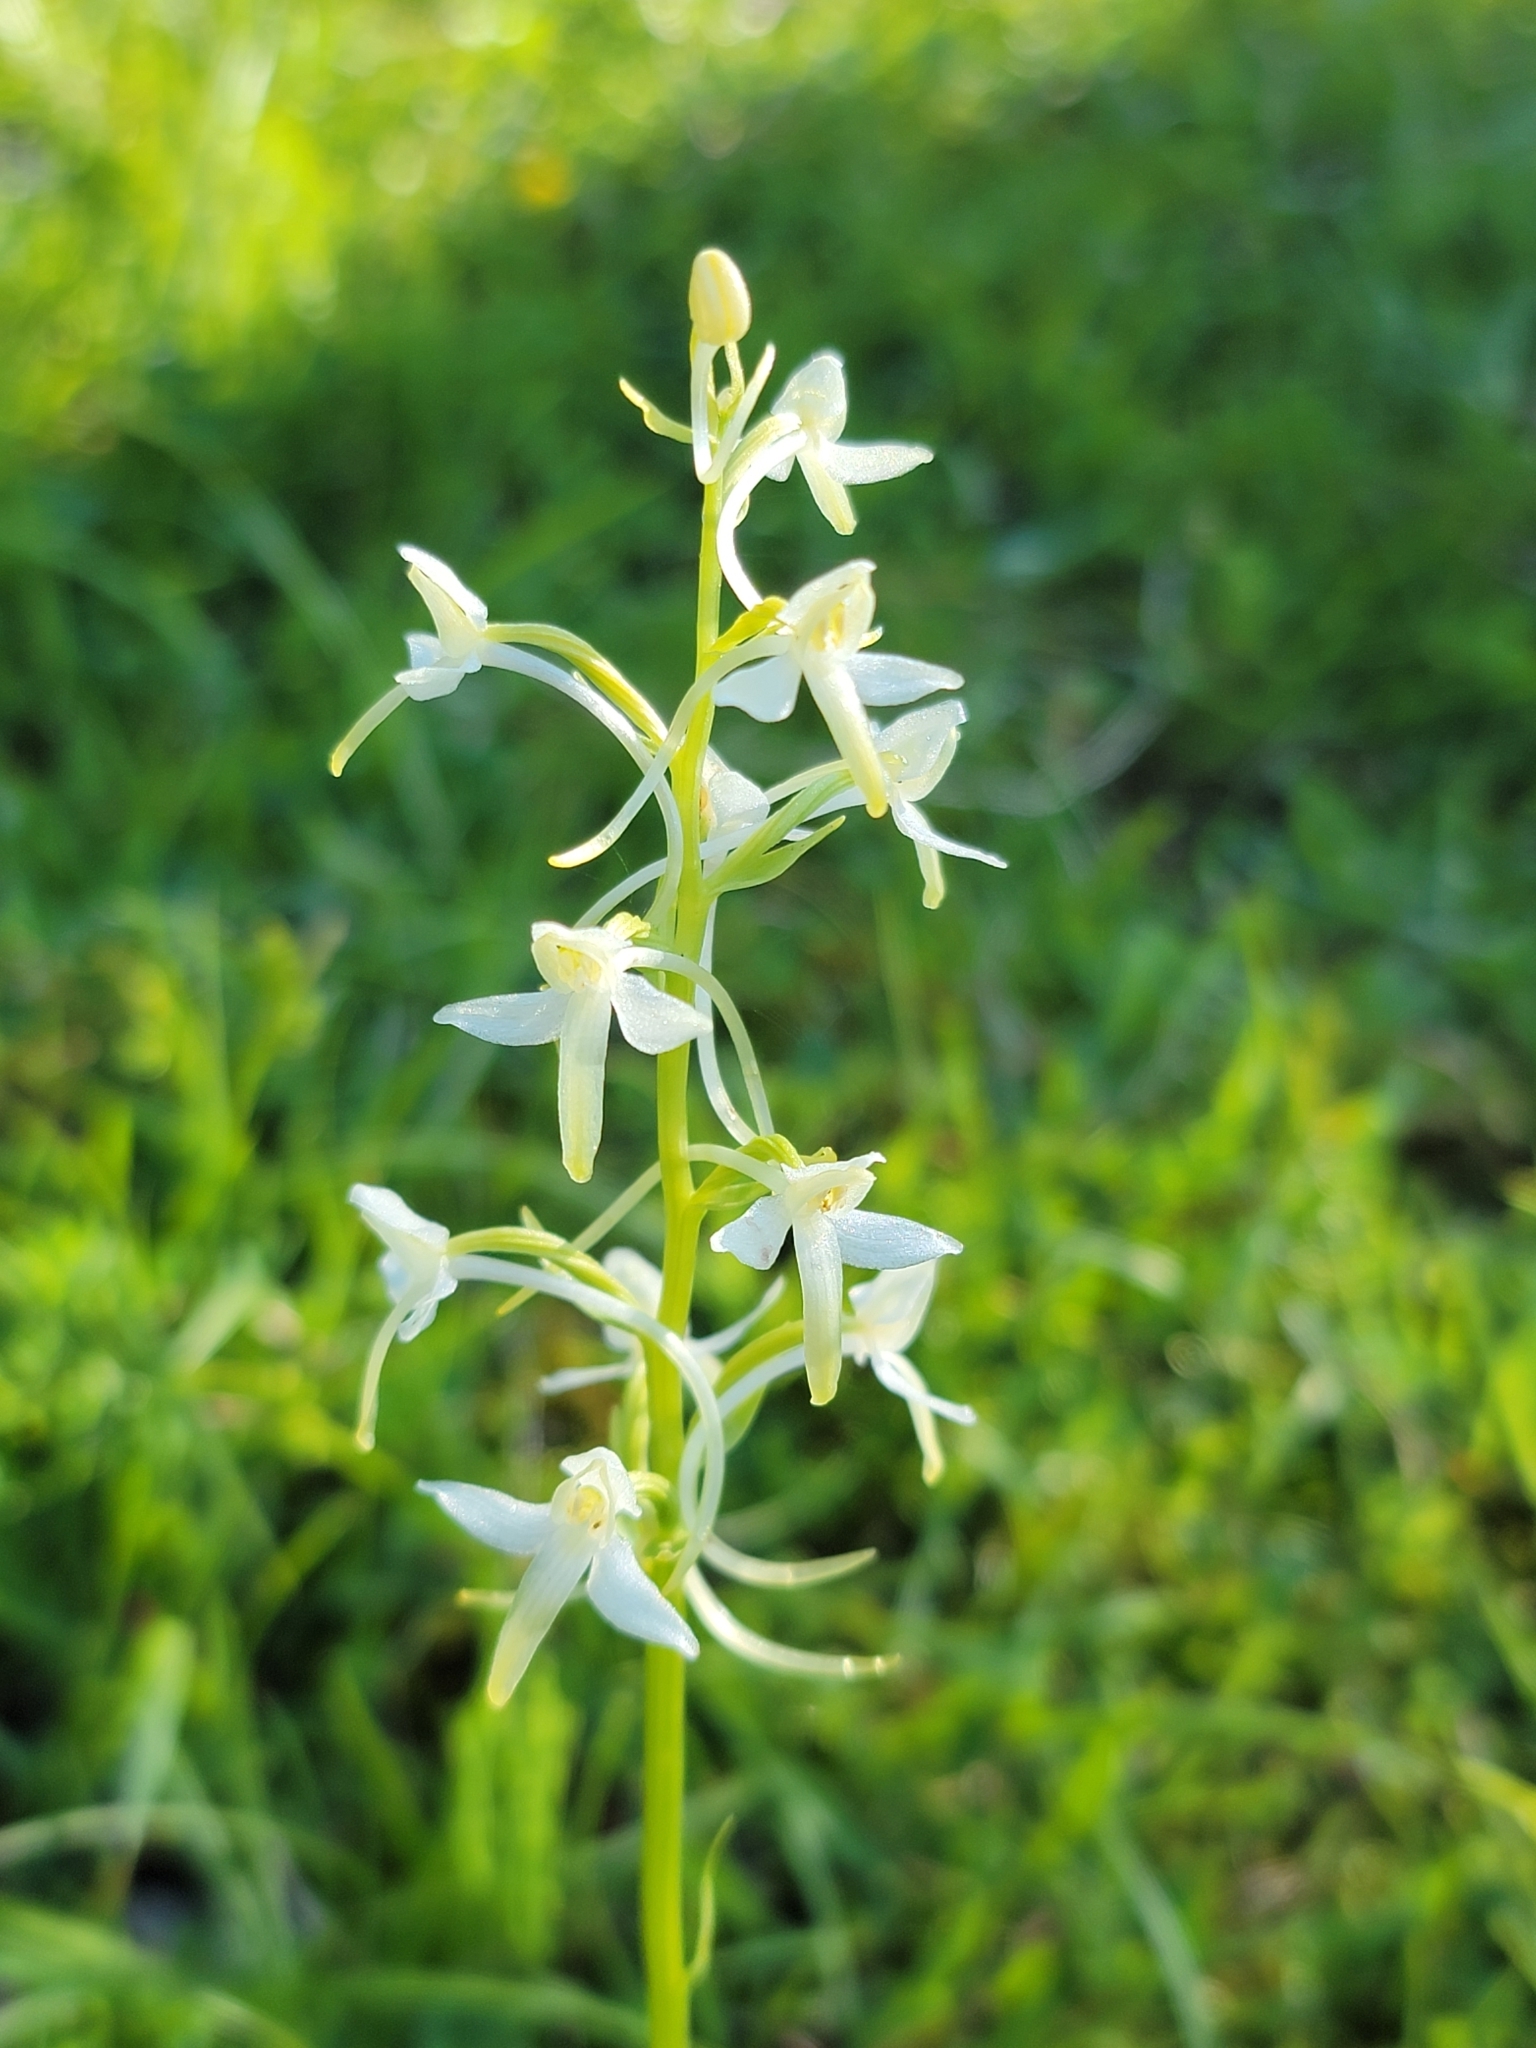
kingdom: Plantae
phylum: Tracheophyta
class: Liliopsida
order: Asparagales
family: Orchidaceae
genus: Platanthera
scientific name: Platanthera bifolia
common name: Lesser butterfly-orchid
